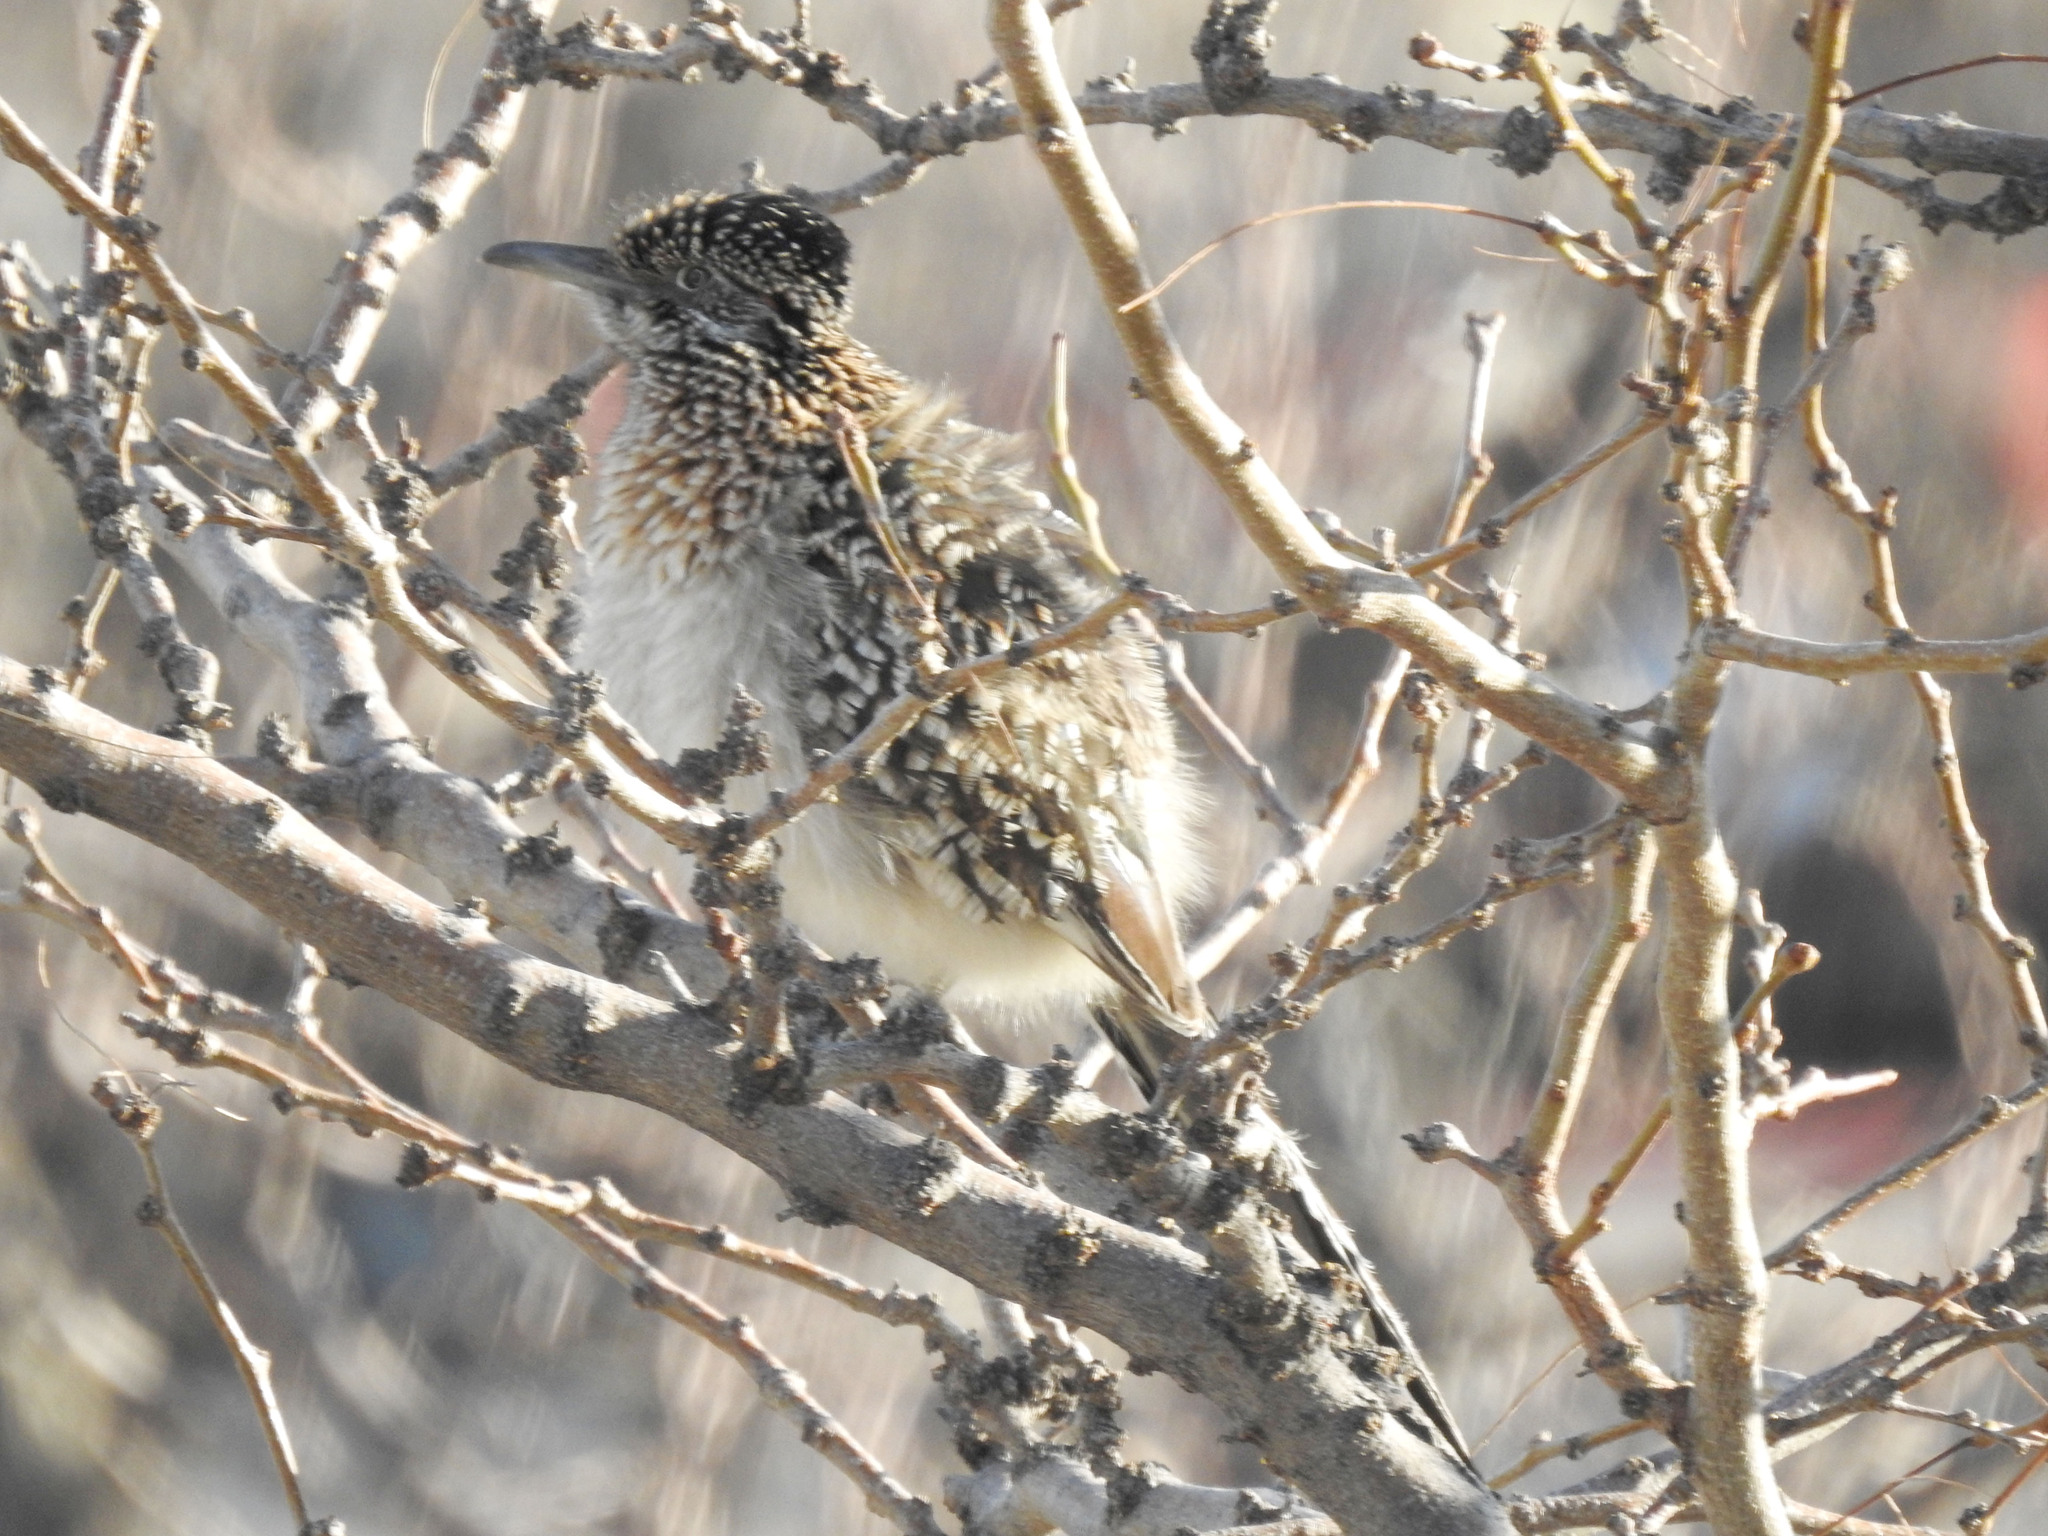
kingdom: Animalia
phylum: Chordata
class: Aves
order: Cuculiformes
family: Cuculidae
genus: Geococcyx
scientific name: Geococcyx californianus
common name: Greater roadrunner
